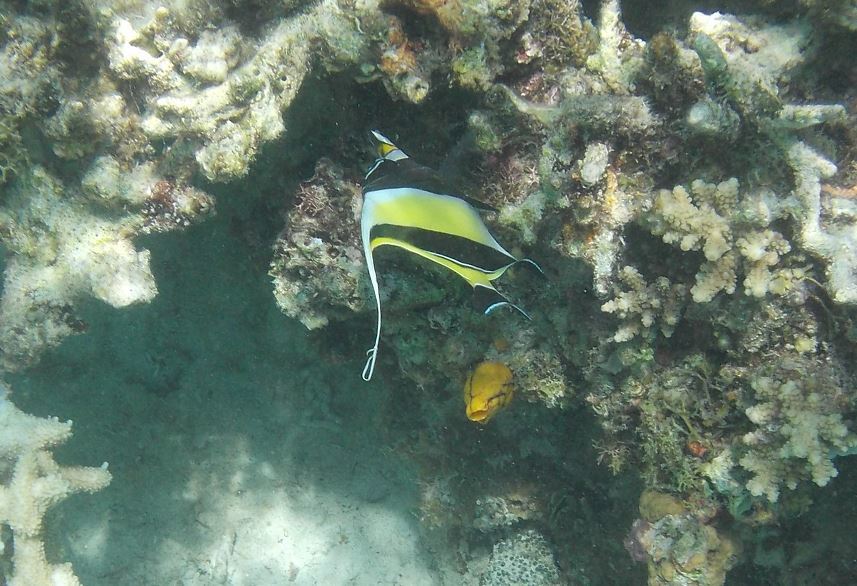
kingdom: Animalia
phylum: Chordata
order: Perciformes
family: Zanclidae
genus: Zanclus
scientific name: Zanclus cornutus
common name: Moorish idol
